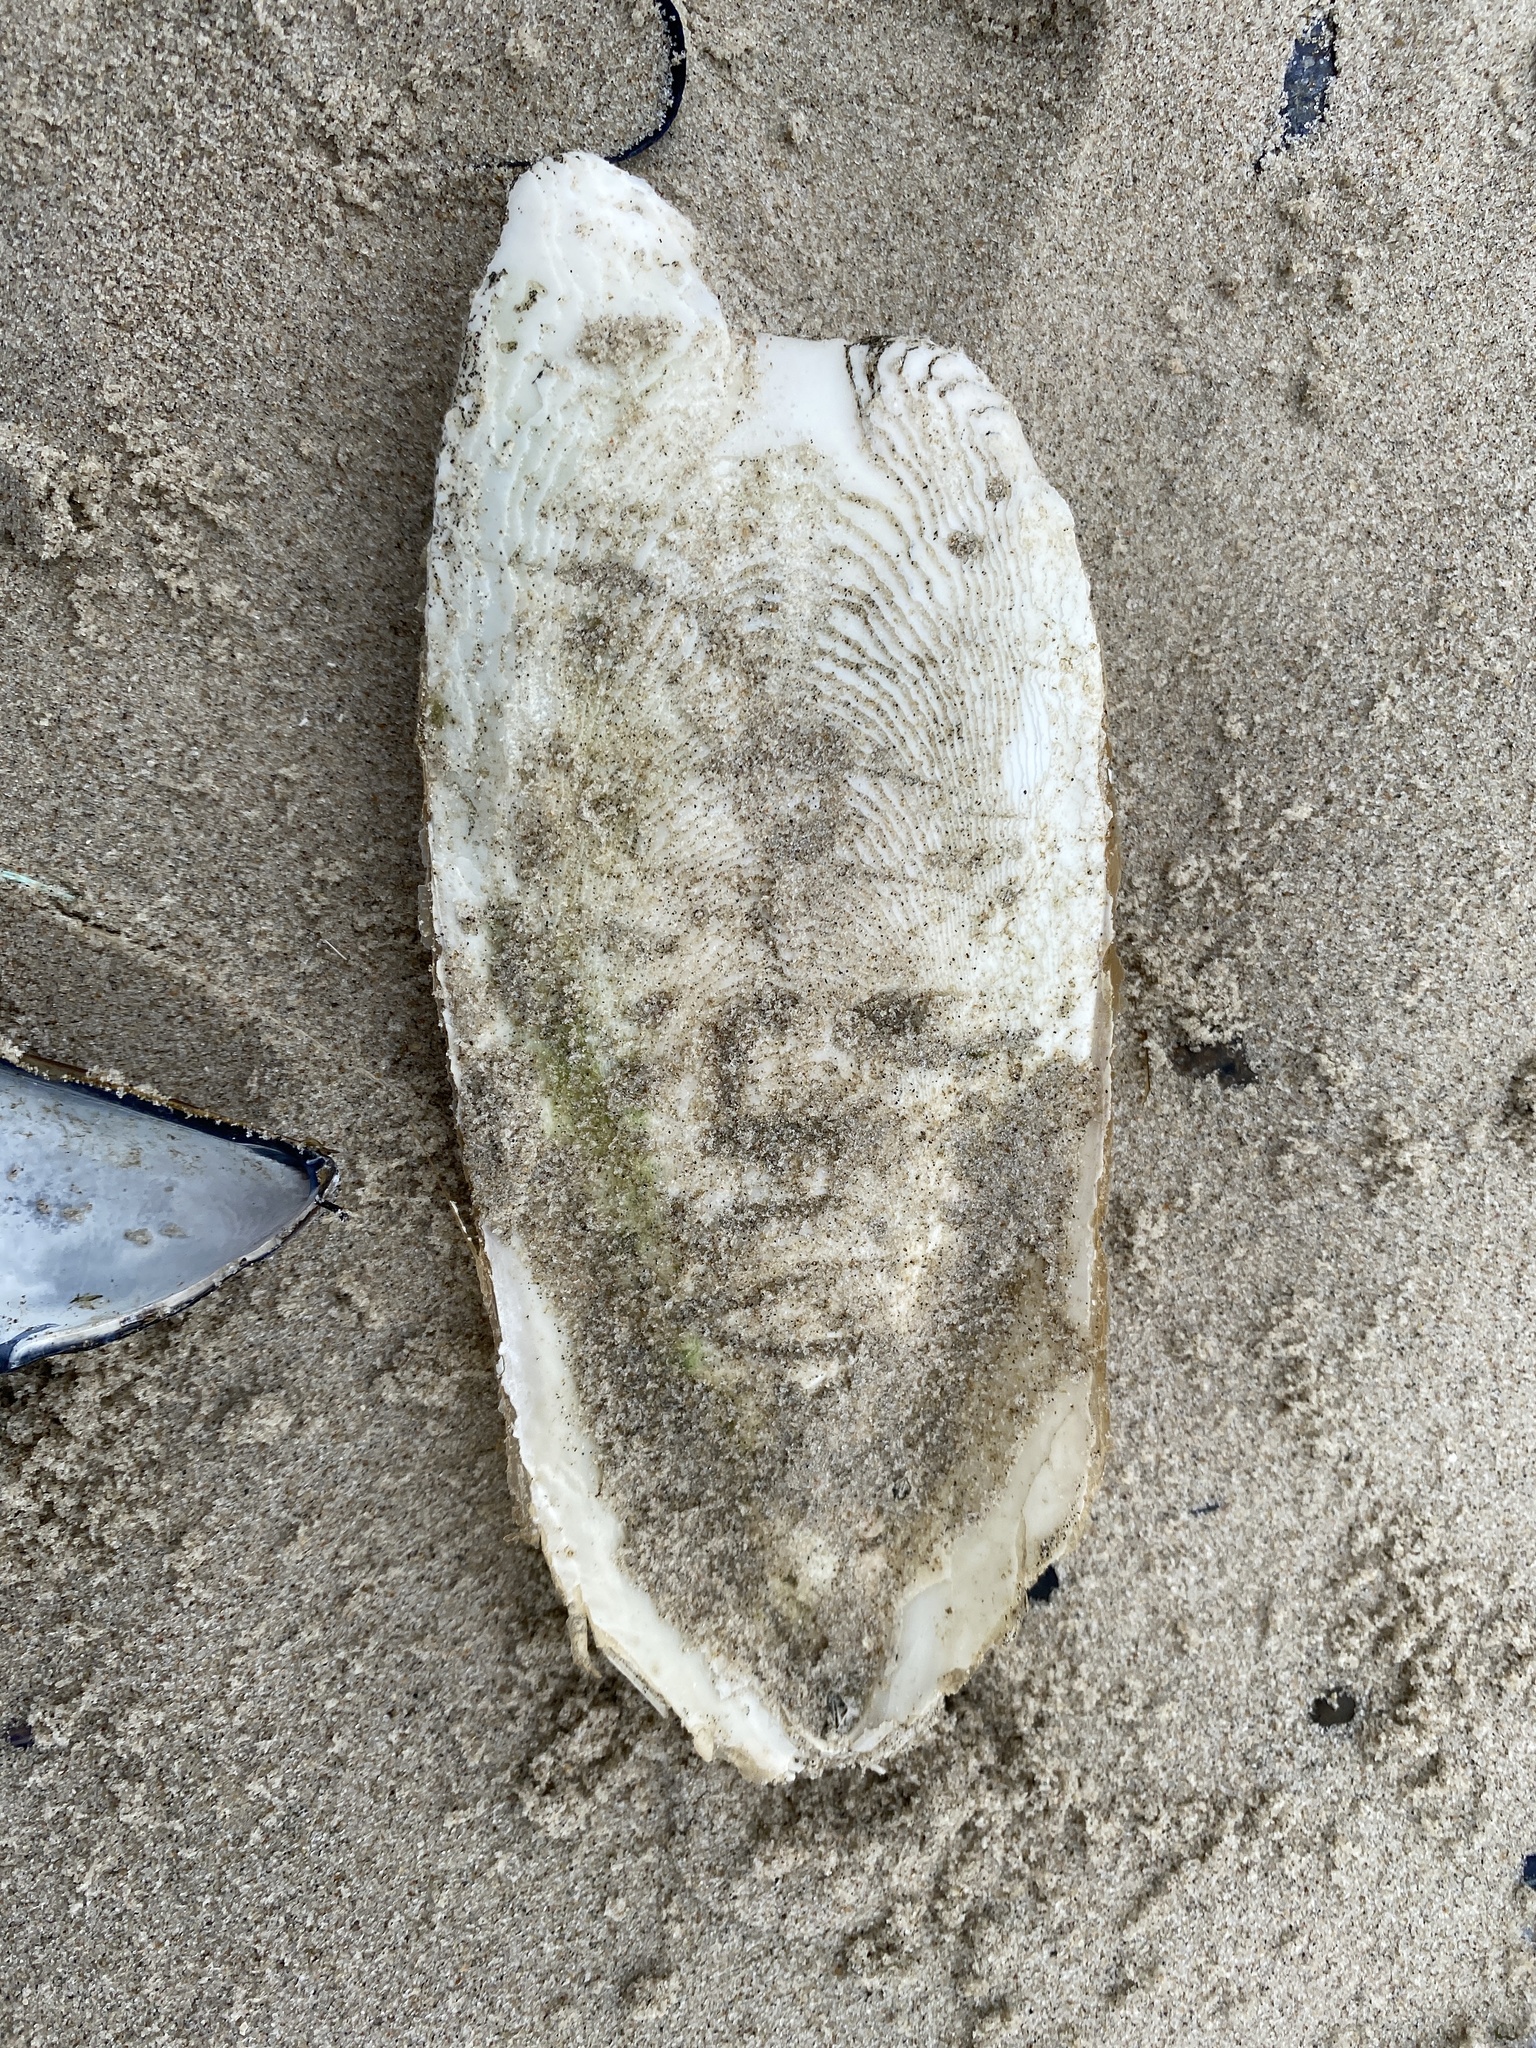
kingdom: Animalia
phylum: Mollusca
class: Cephalopoda
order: Sepiida
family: Sepiidae
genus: Sepia
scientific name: Sepia officinalis
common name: Common cuttlefish
